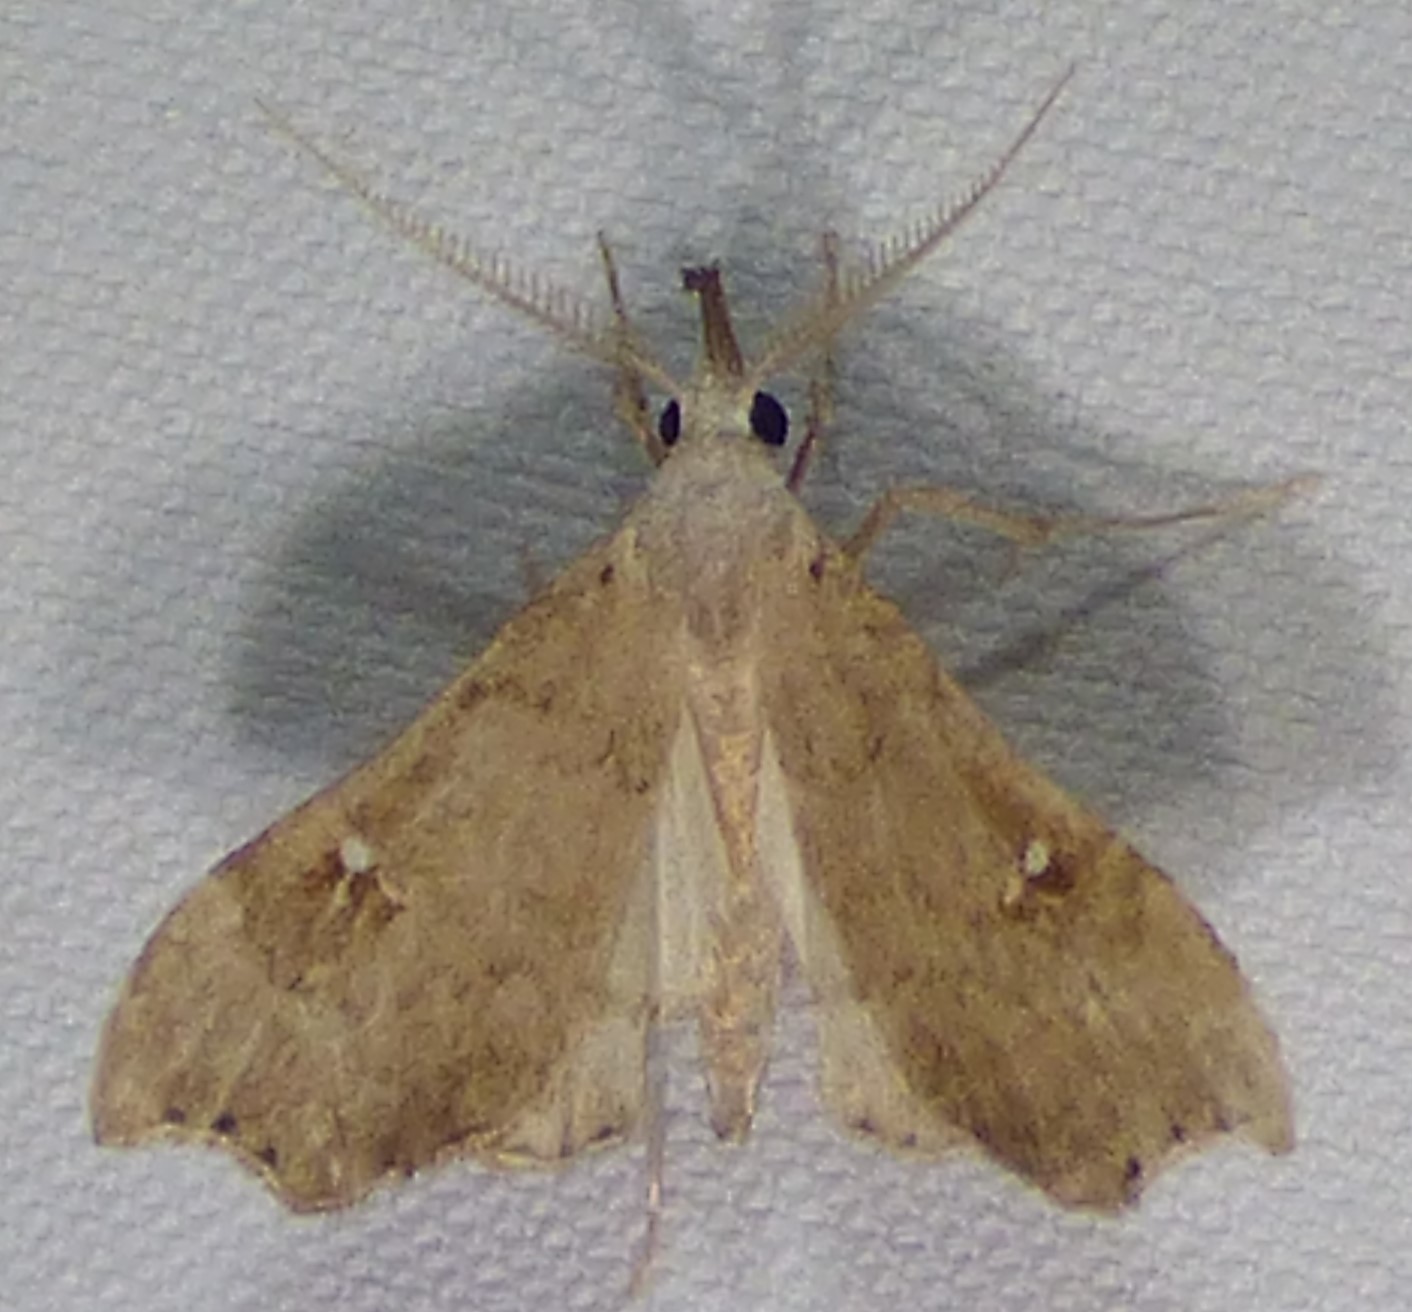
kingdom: Animalia
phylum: Arthropoda
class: Insecta
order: Lepidoptera
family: Erebidae
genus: Redectis
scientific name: Redectis vitrea
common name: White-spotted redectis
